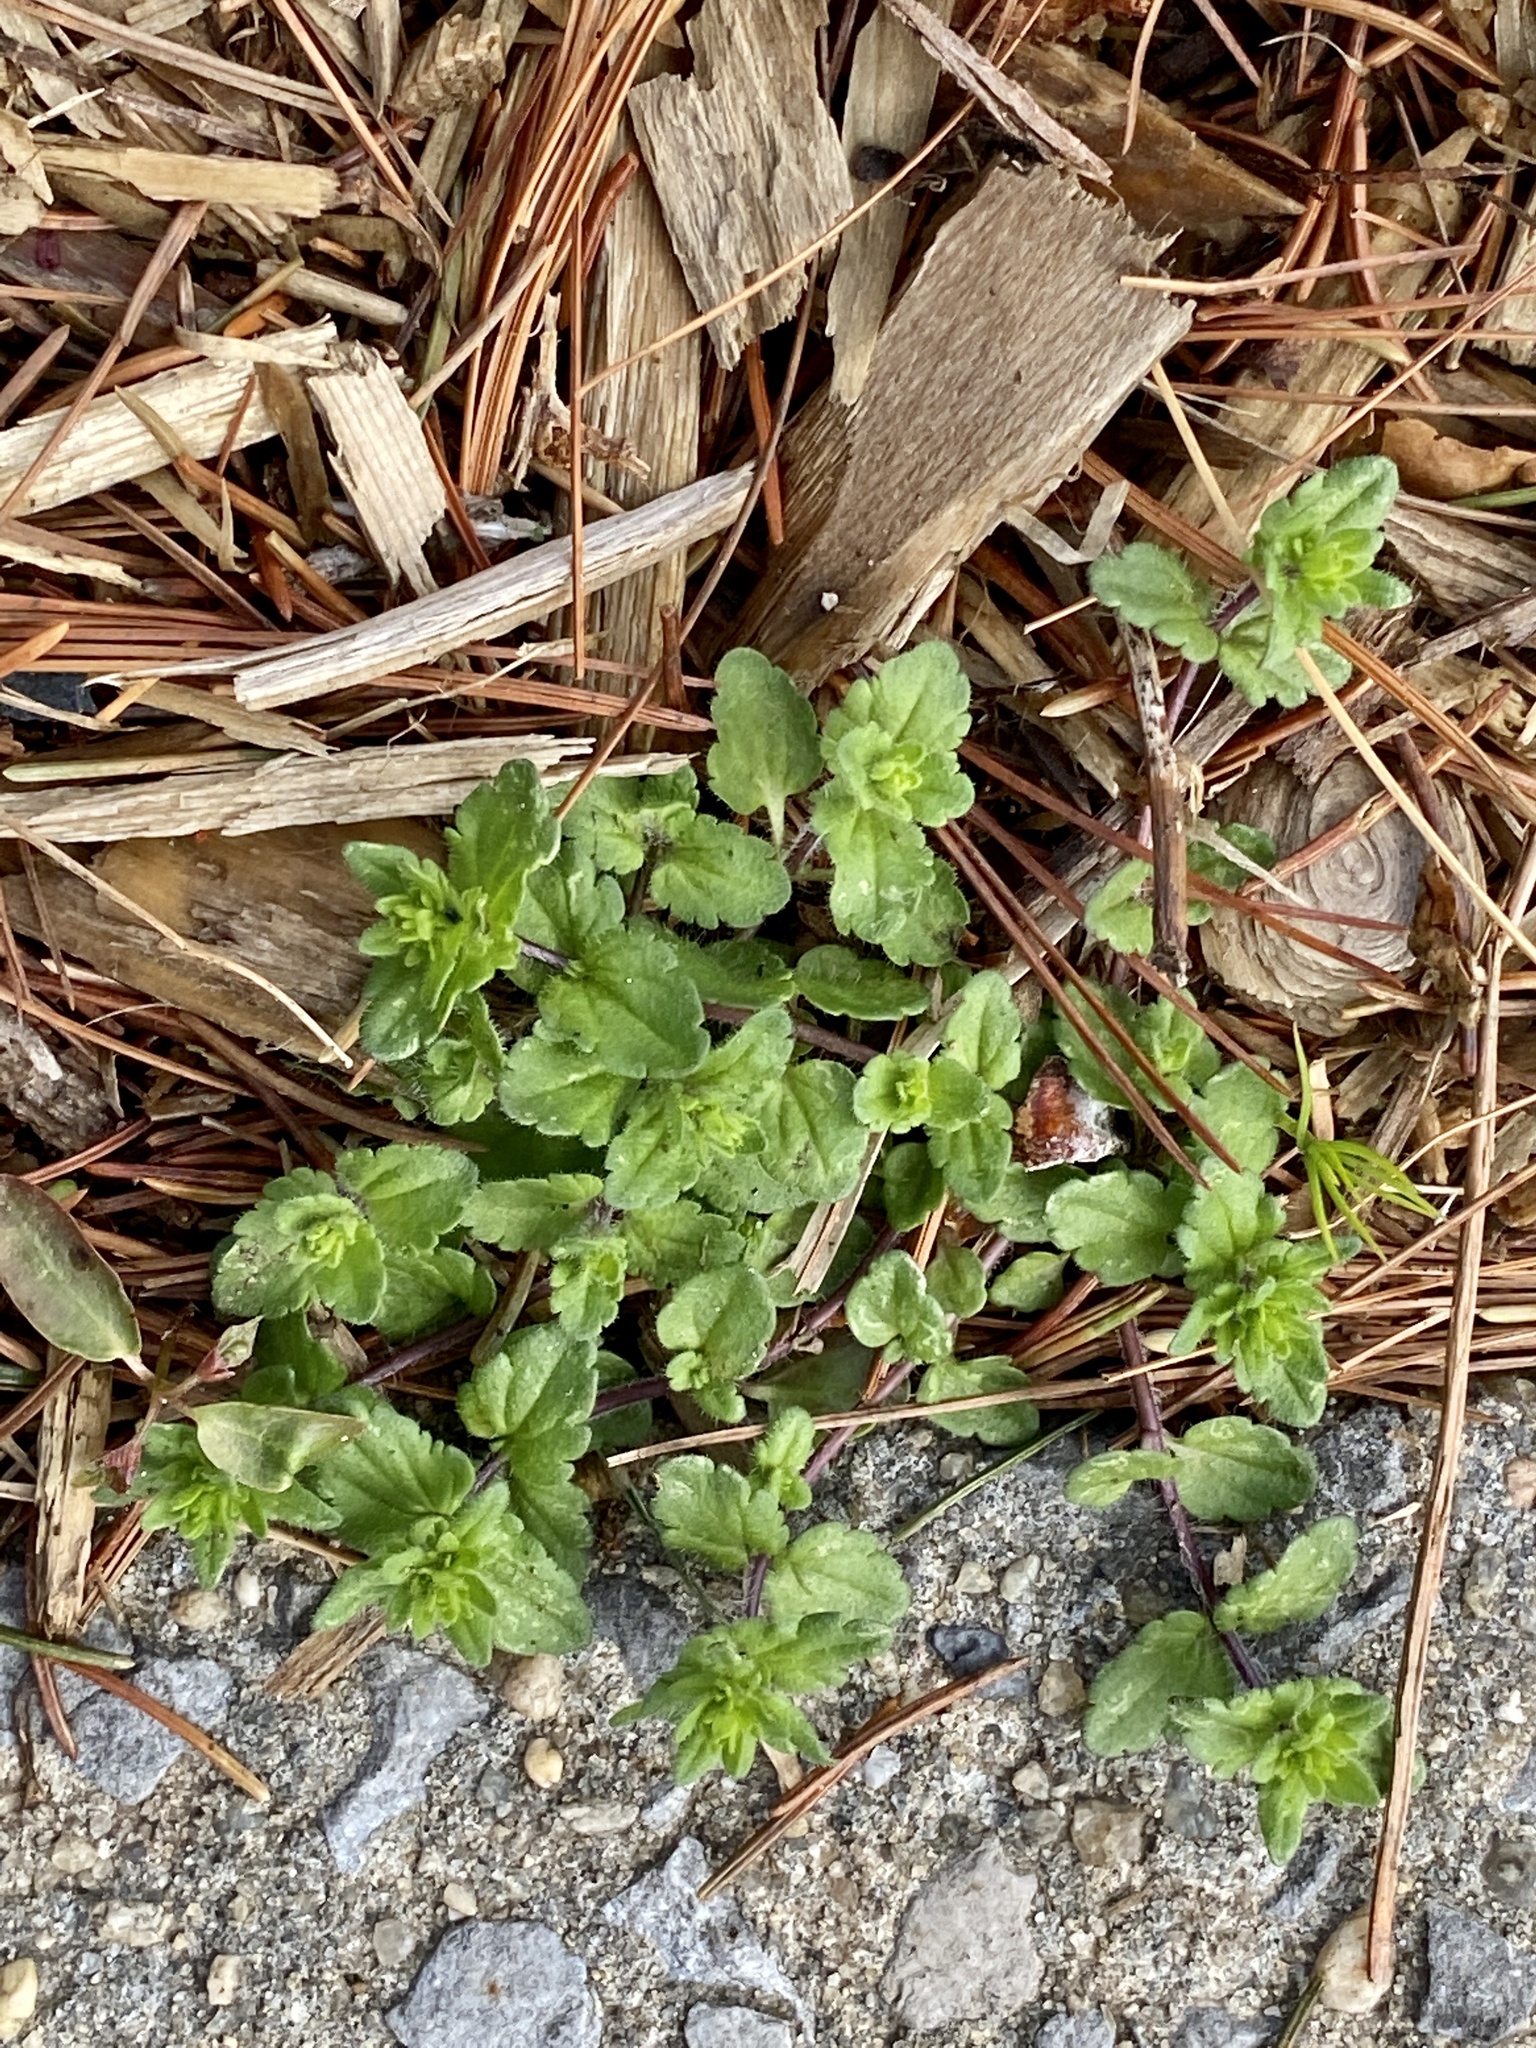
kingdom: Plantae
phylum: Tracheophyta
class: Magnoliopsida
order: Lamiales
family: Plantaginaceae
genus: Veronica
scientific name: Veronica arvensis
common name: Corn speedwell
